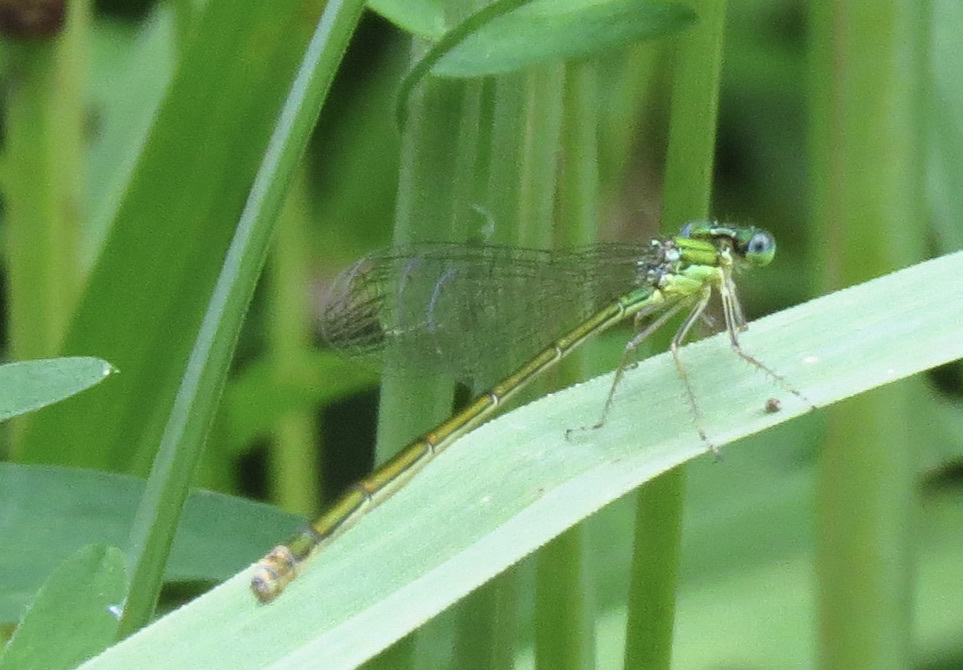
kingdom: Animalia
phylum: Arthropoda
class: Insecta
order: Odonata
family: Coenagrionidae
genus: Nehalennia
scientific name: Nehalennia irene
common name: Sedge sprite
